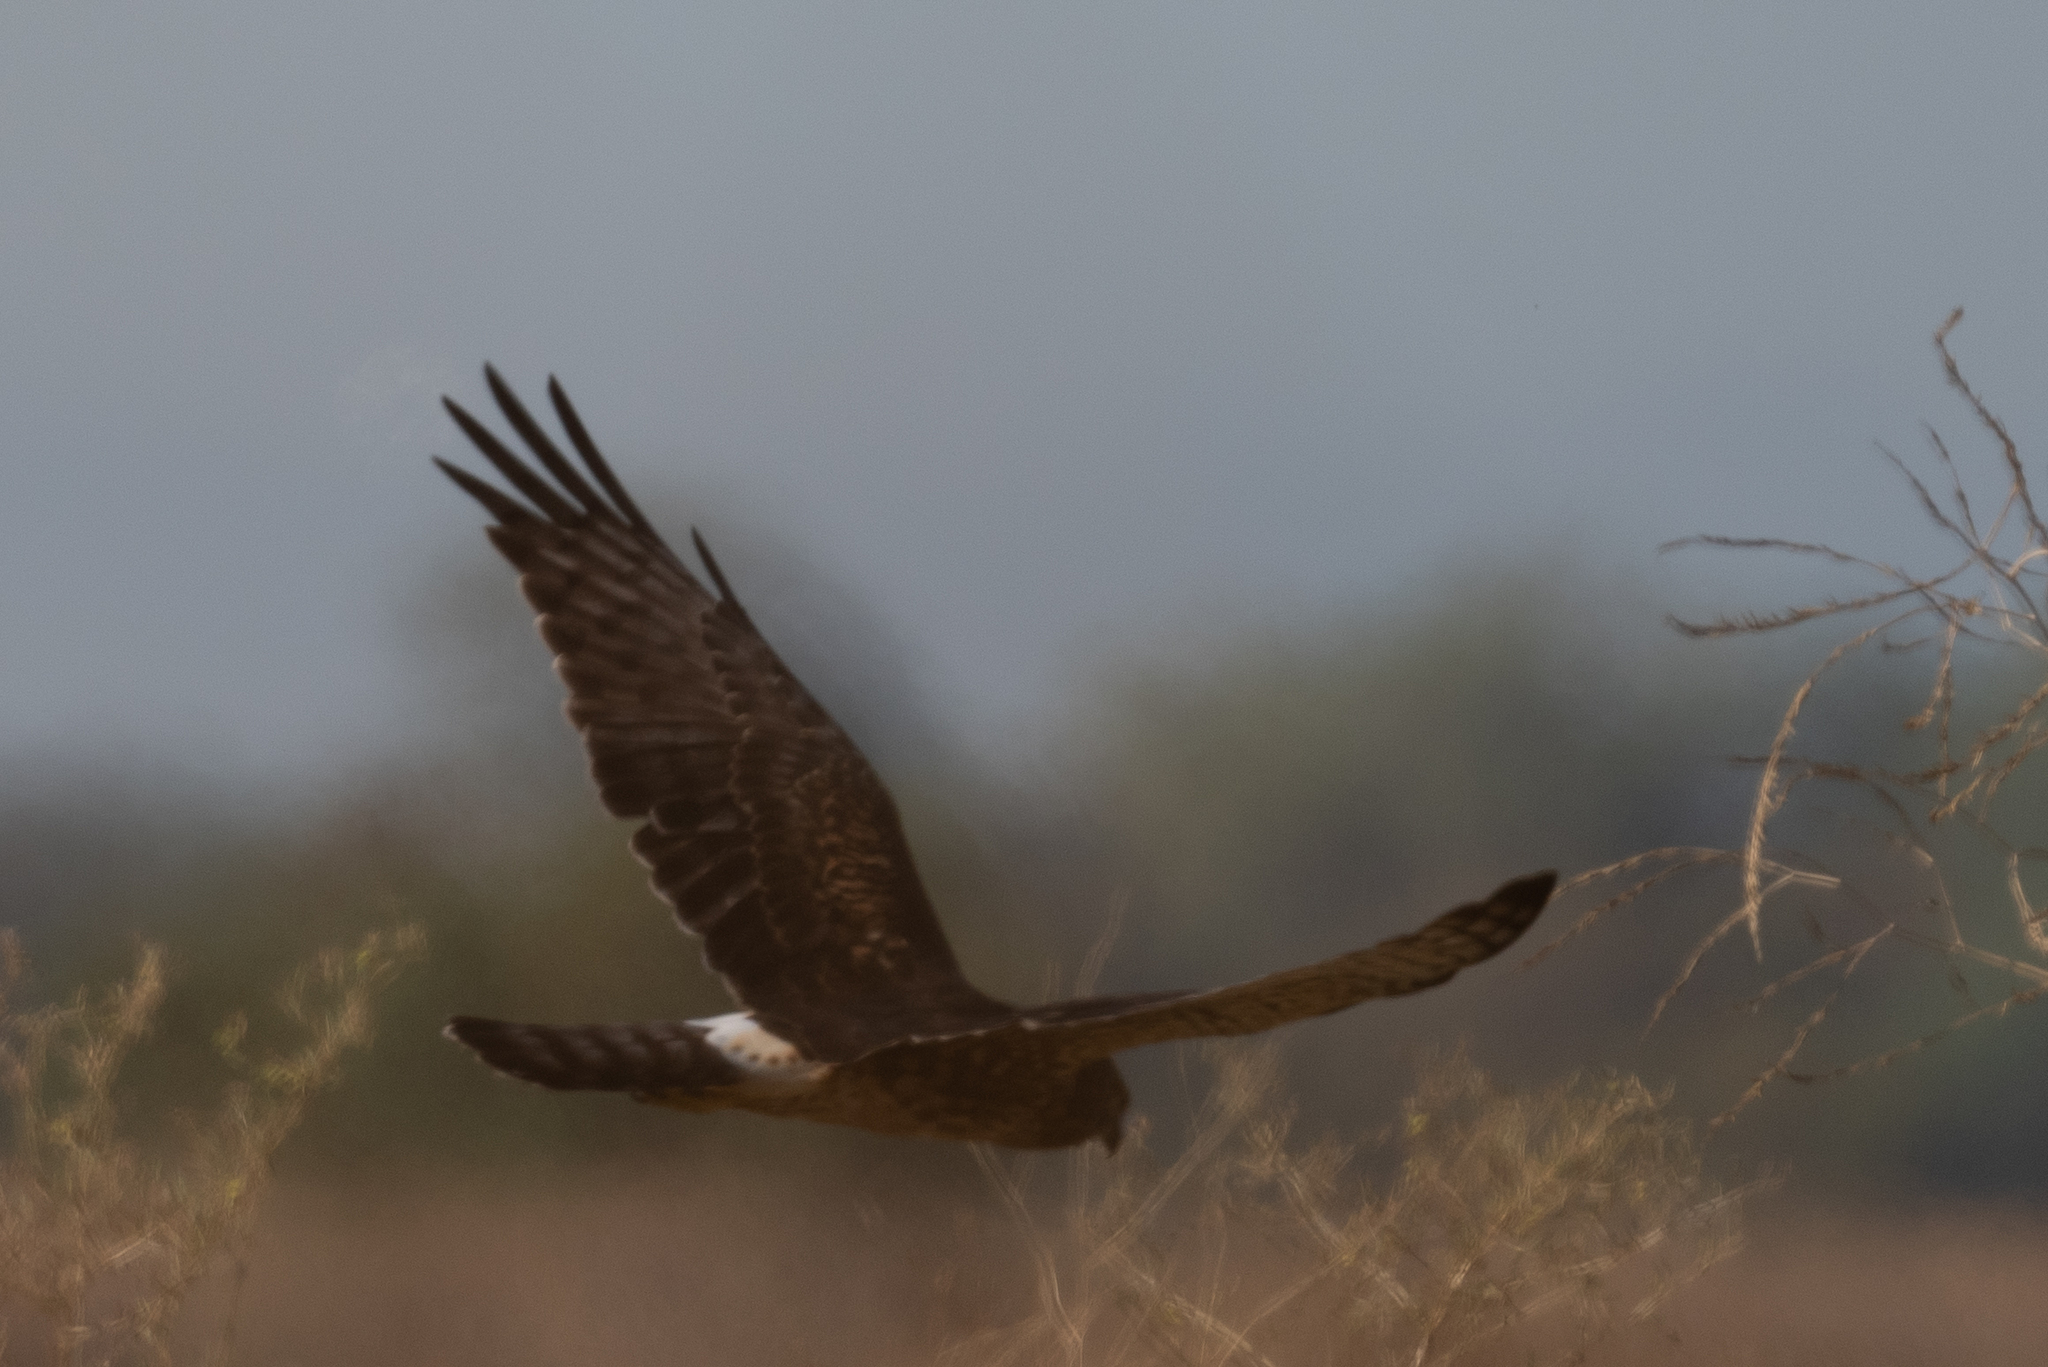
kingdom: Animalia
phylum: Chordata
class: Aves
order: Accipitriformes
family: Accipitridae
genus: Circus
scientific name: Circus cyaneus
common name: Hen harrier
